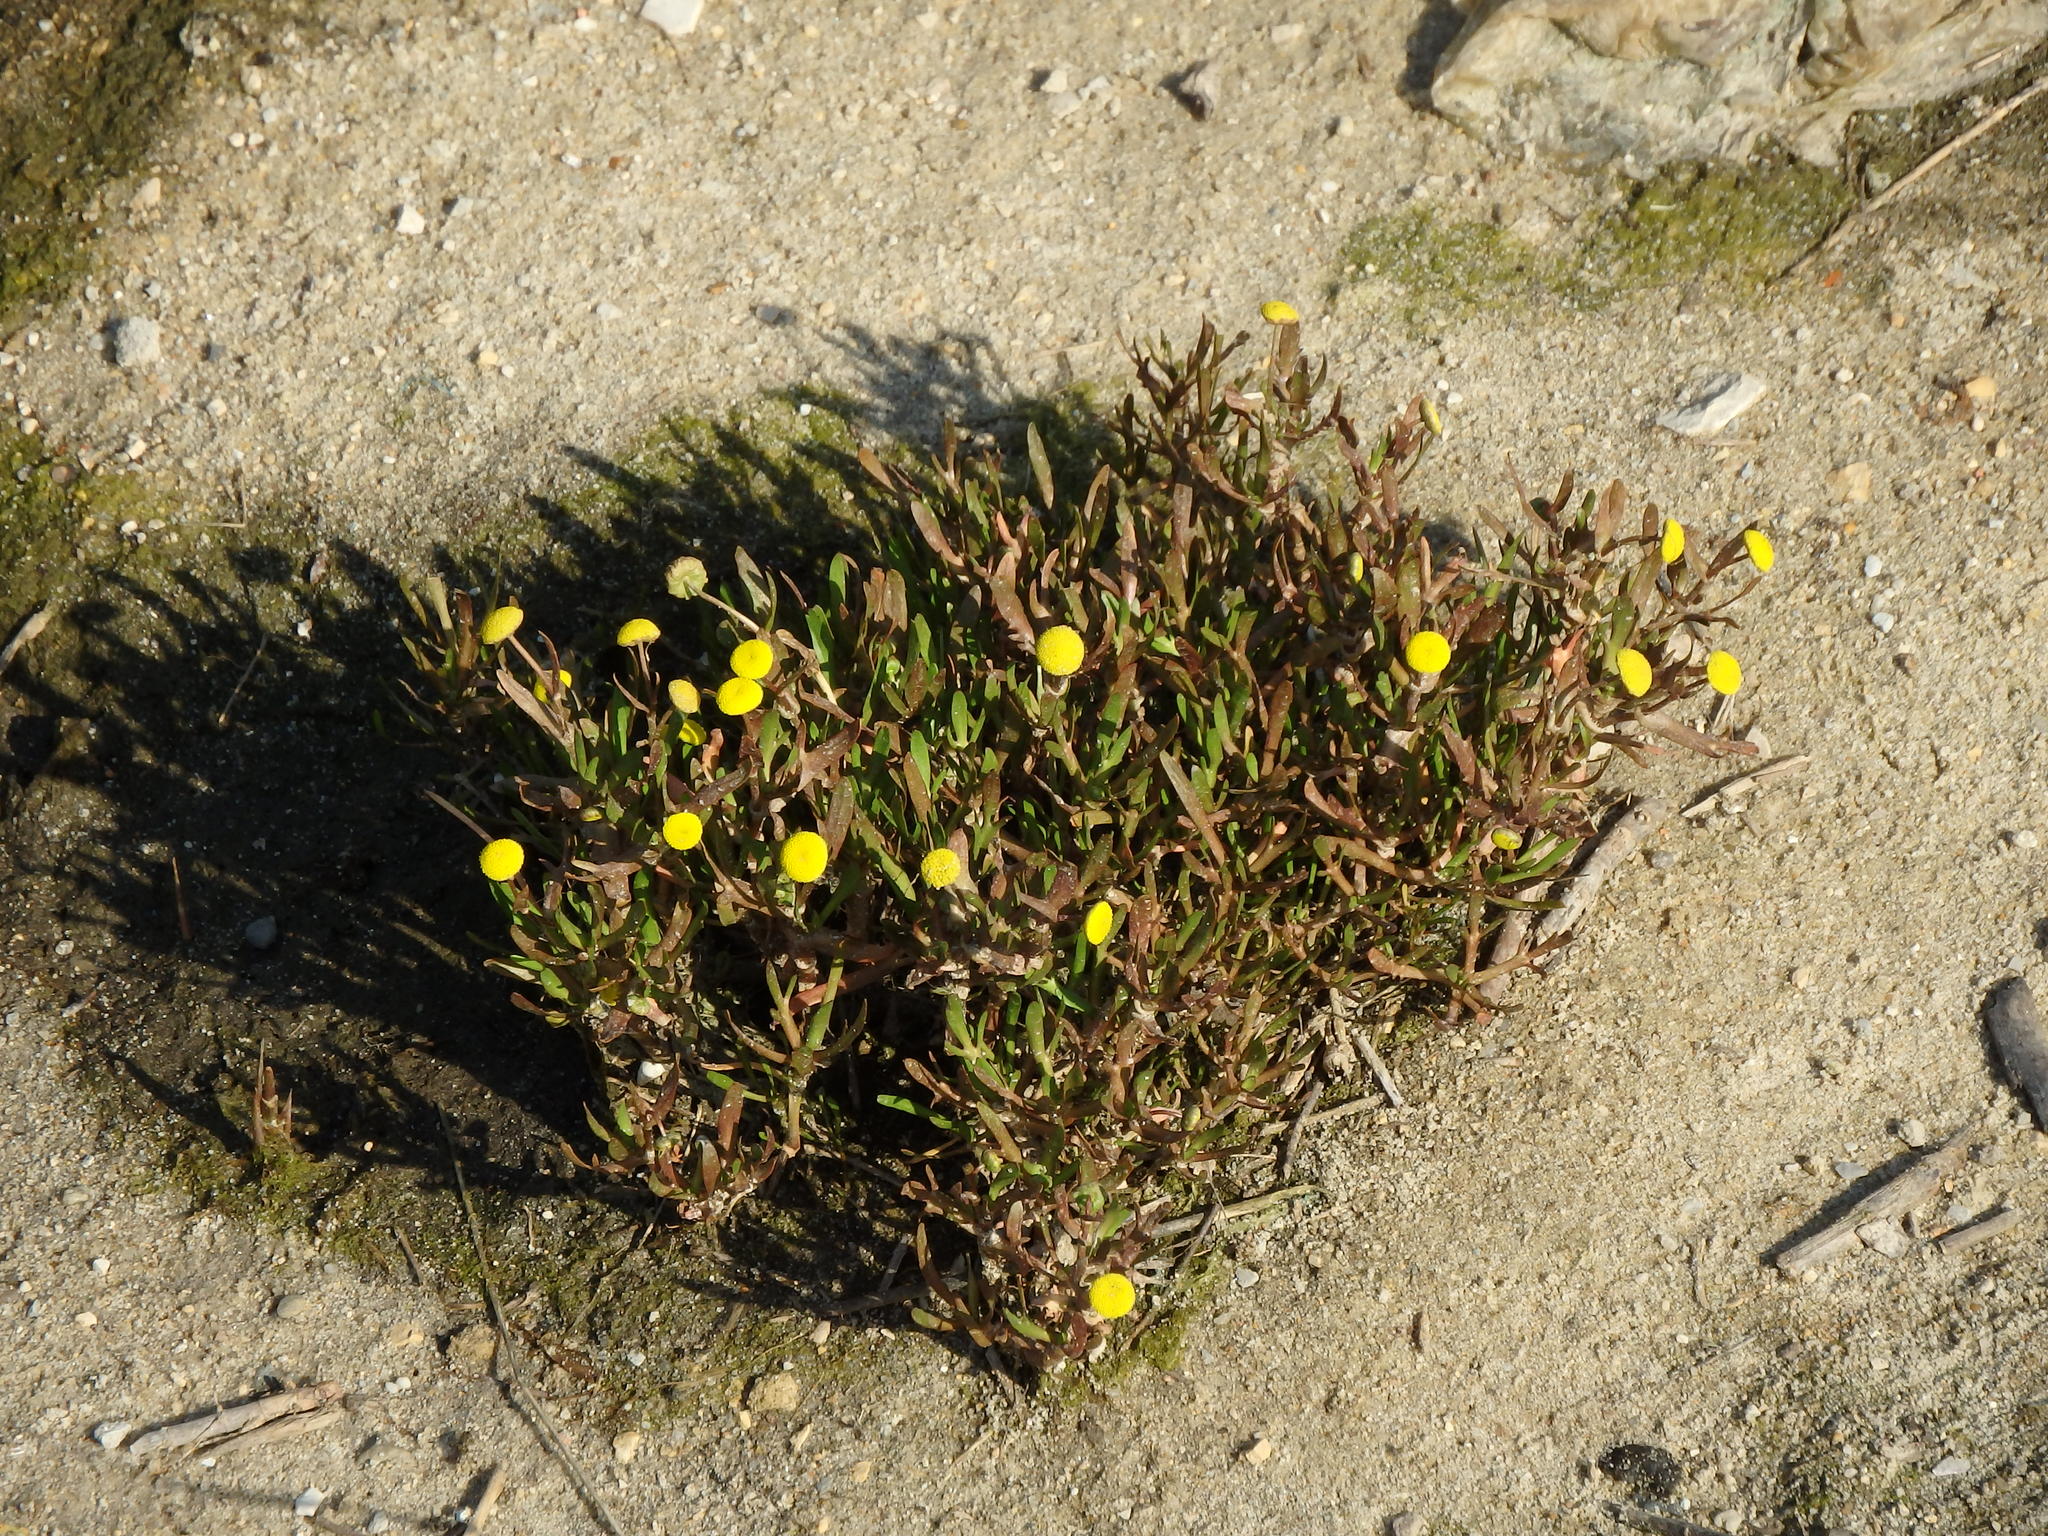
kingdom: Plantae
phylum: Tracheophyta
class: Magnoliopsida
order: Asterales
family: Asteraceae
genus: Cotula
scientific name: Cotula coronopifolia
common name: Buttonweed
